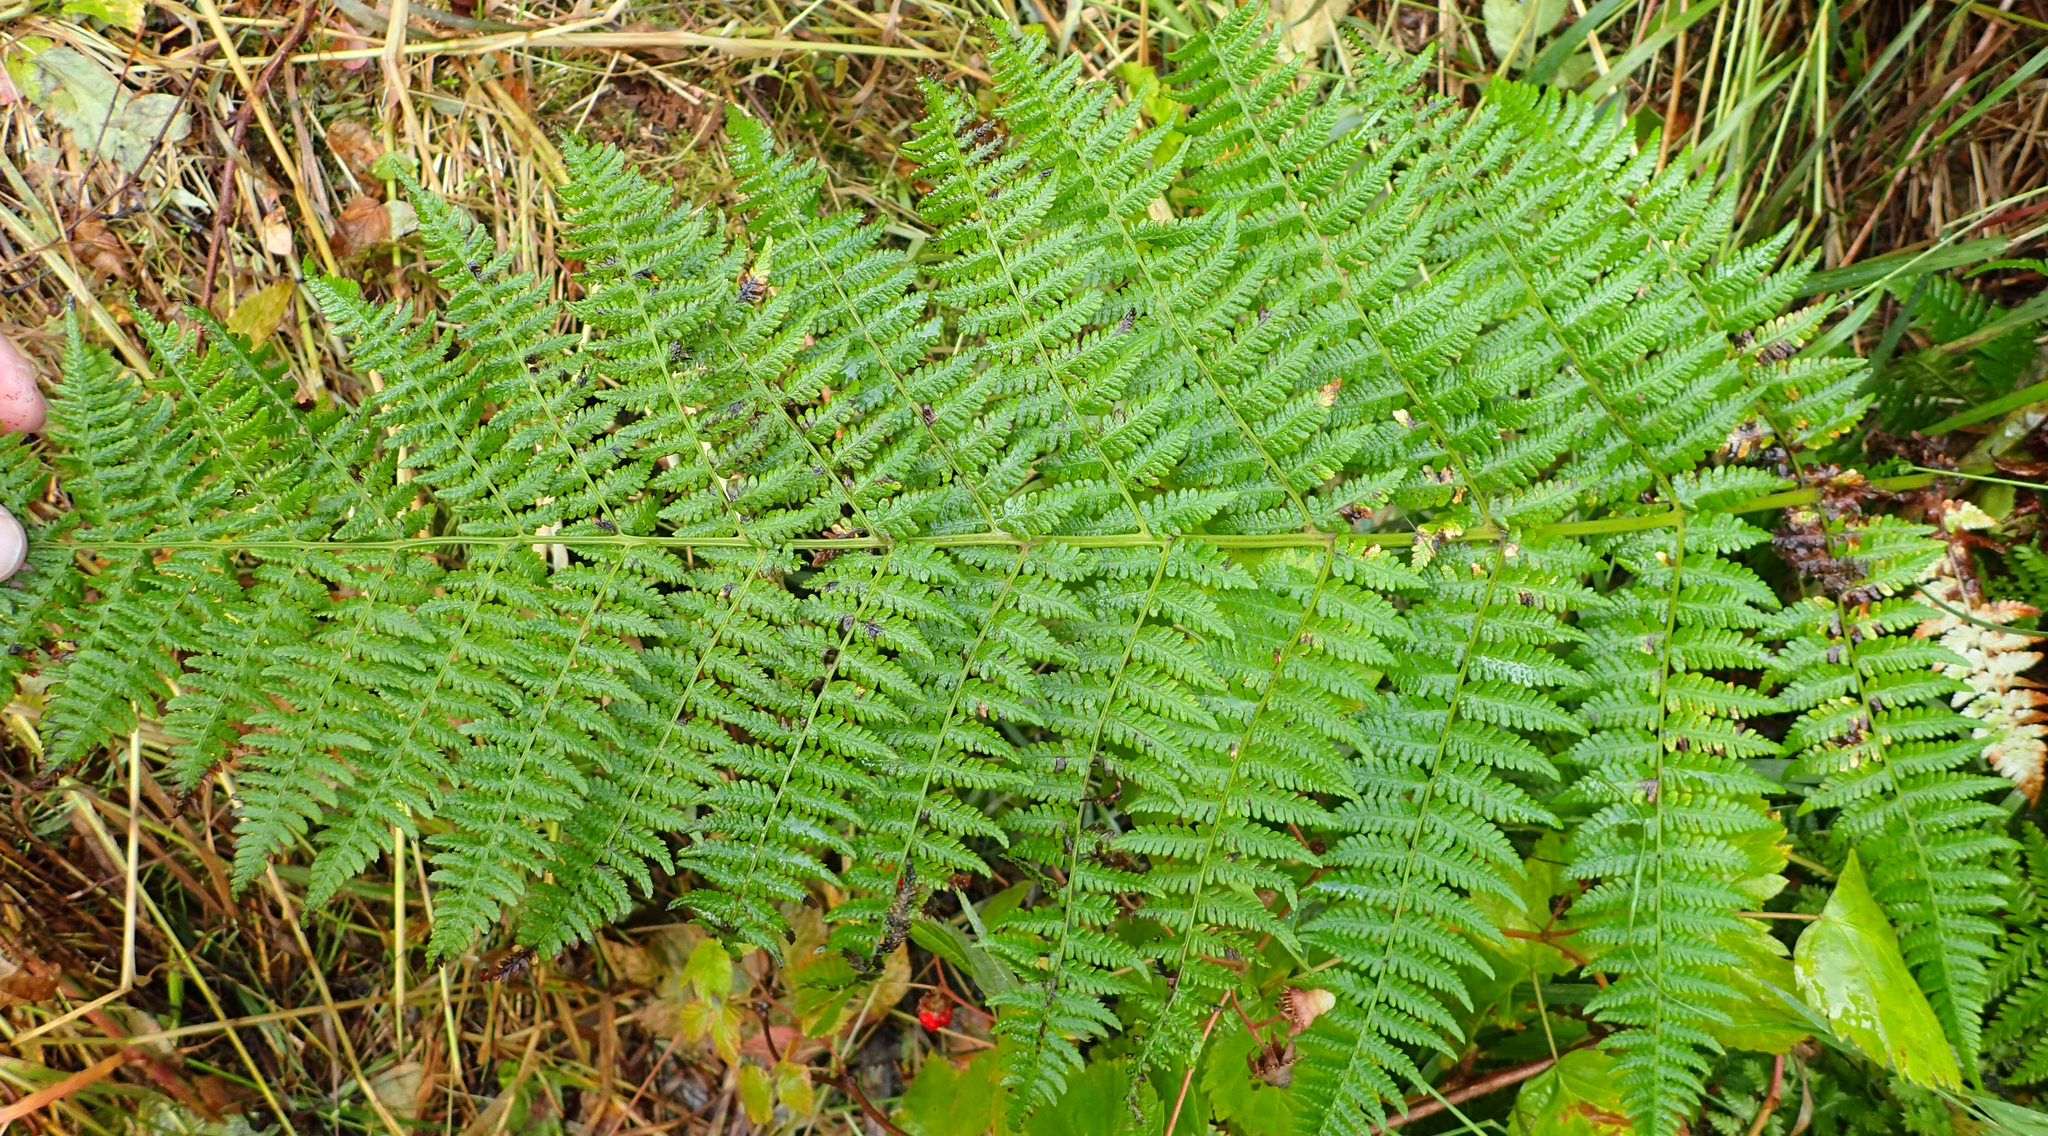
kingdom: Plantae
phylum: Tracheophyta
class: Polypodiopsida
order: Polypodiales
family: Athyriaceae
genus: Athyrium
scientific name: Athyrium filix-femina
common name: Lady fern
